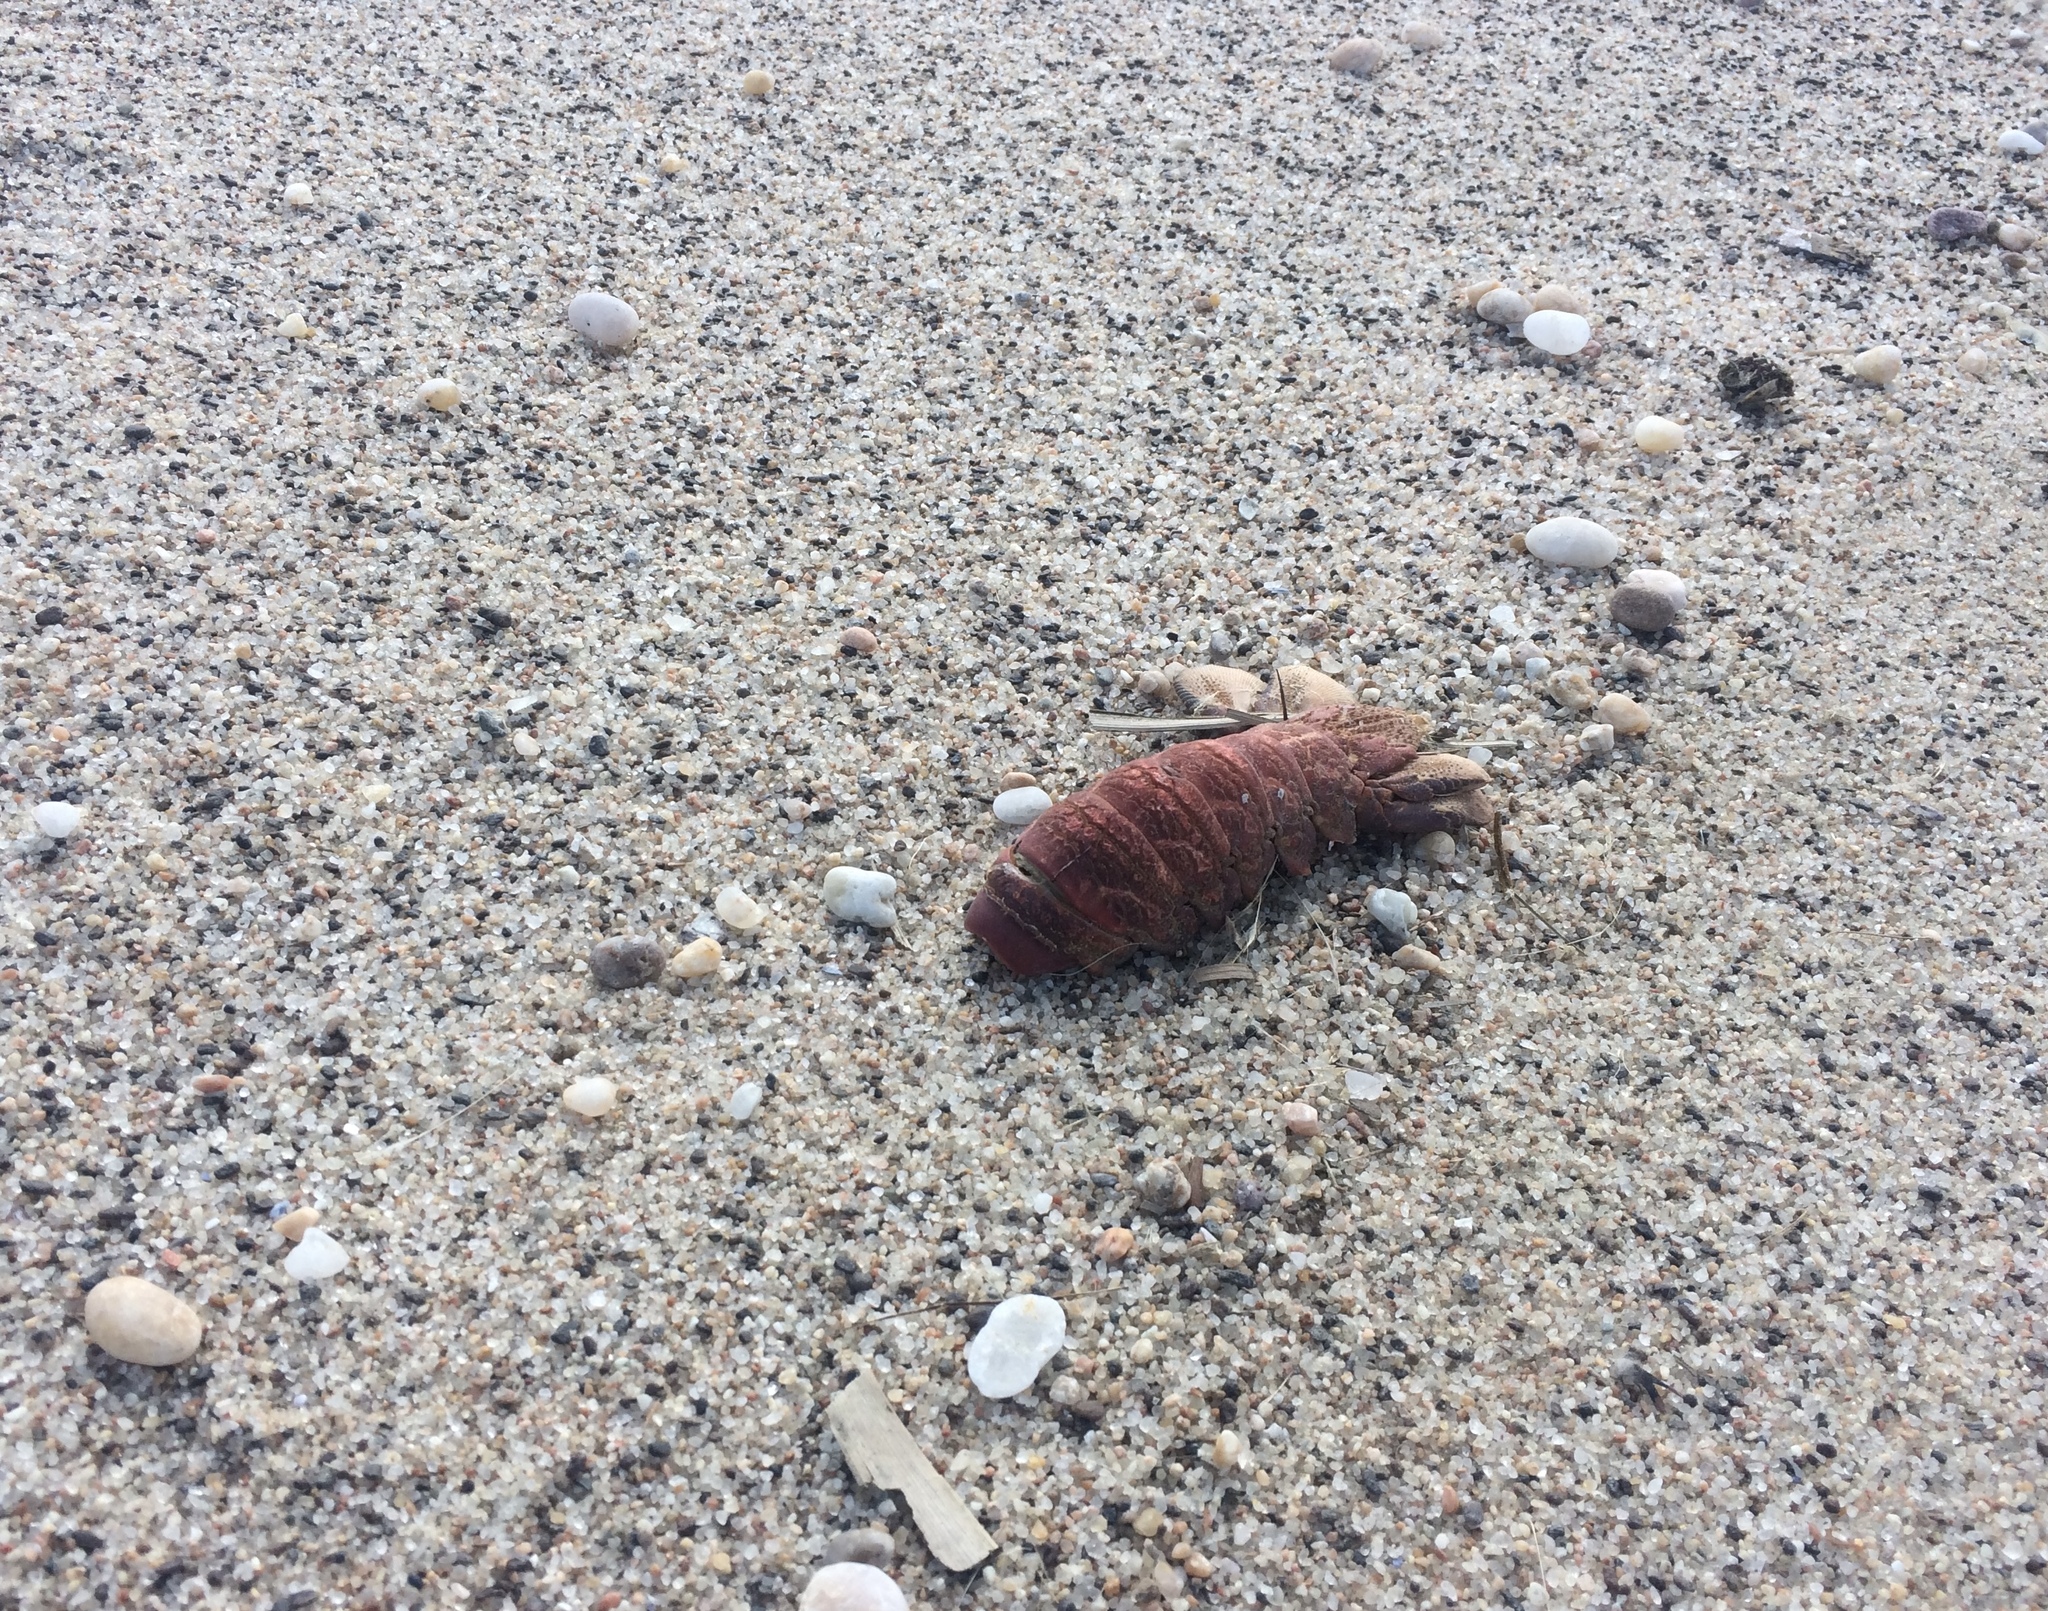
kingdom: Animalia
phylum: Arthropoda
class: Malacostraca
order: Decapoda
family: Palinuridae
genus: Jasus
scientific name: Jasus lalandii
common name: Cape rock lobster
